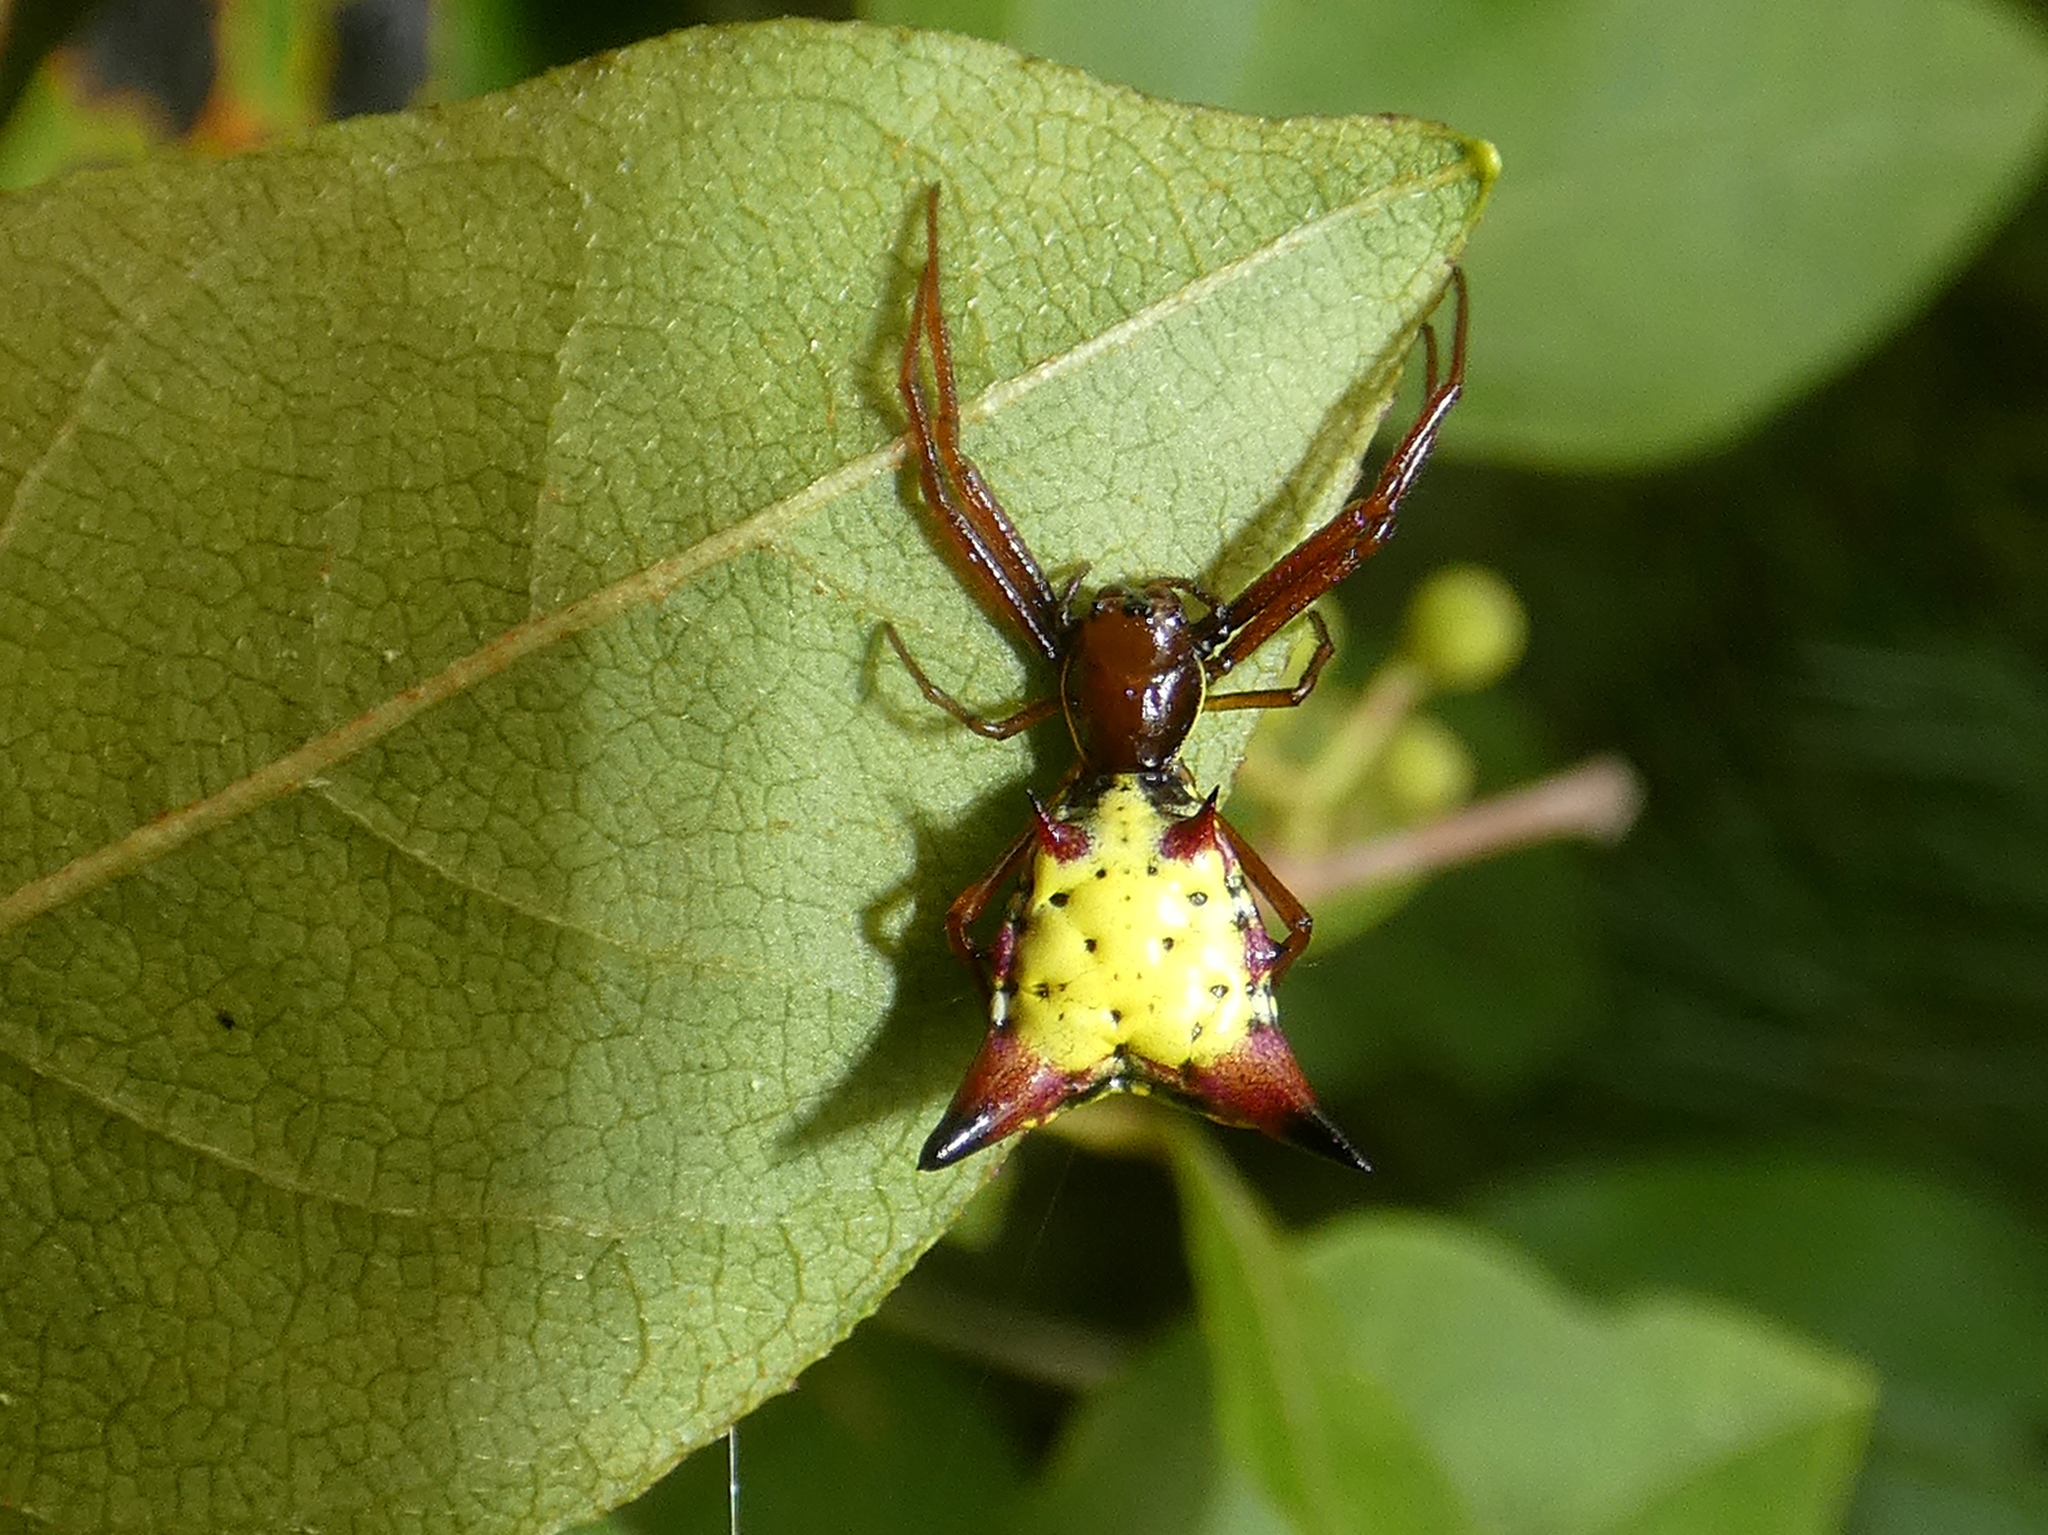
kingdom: Animalia
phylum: Arthropoda
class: Arachnida
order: Araneae
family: Araneidae
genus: Micrathena
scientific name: Micrathena sagittata
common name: Orb weavers
